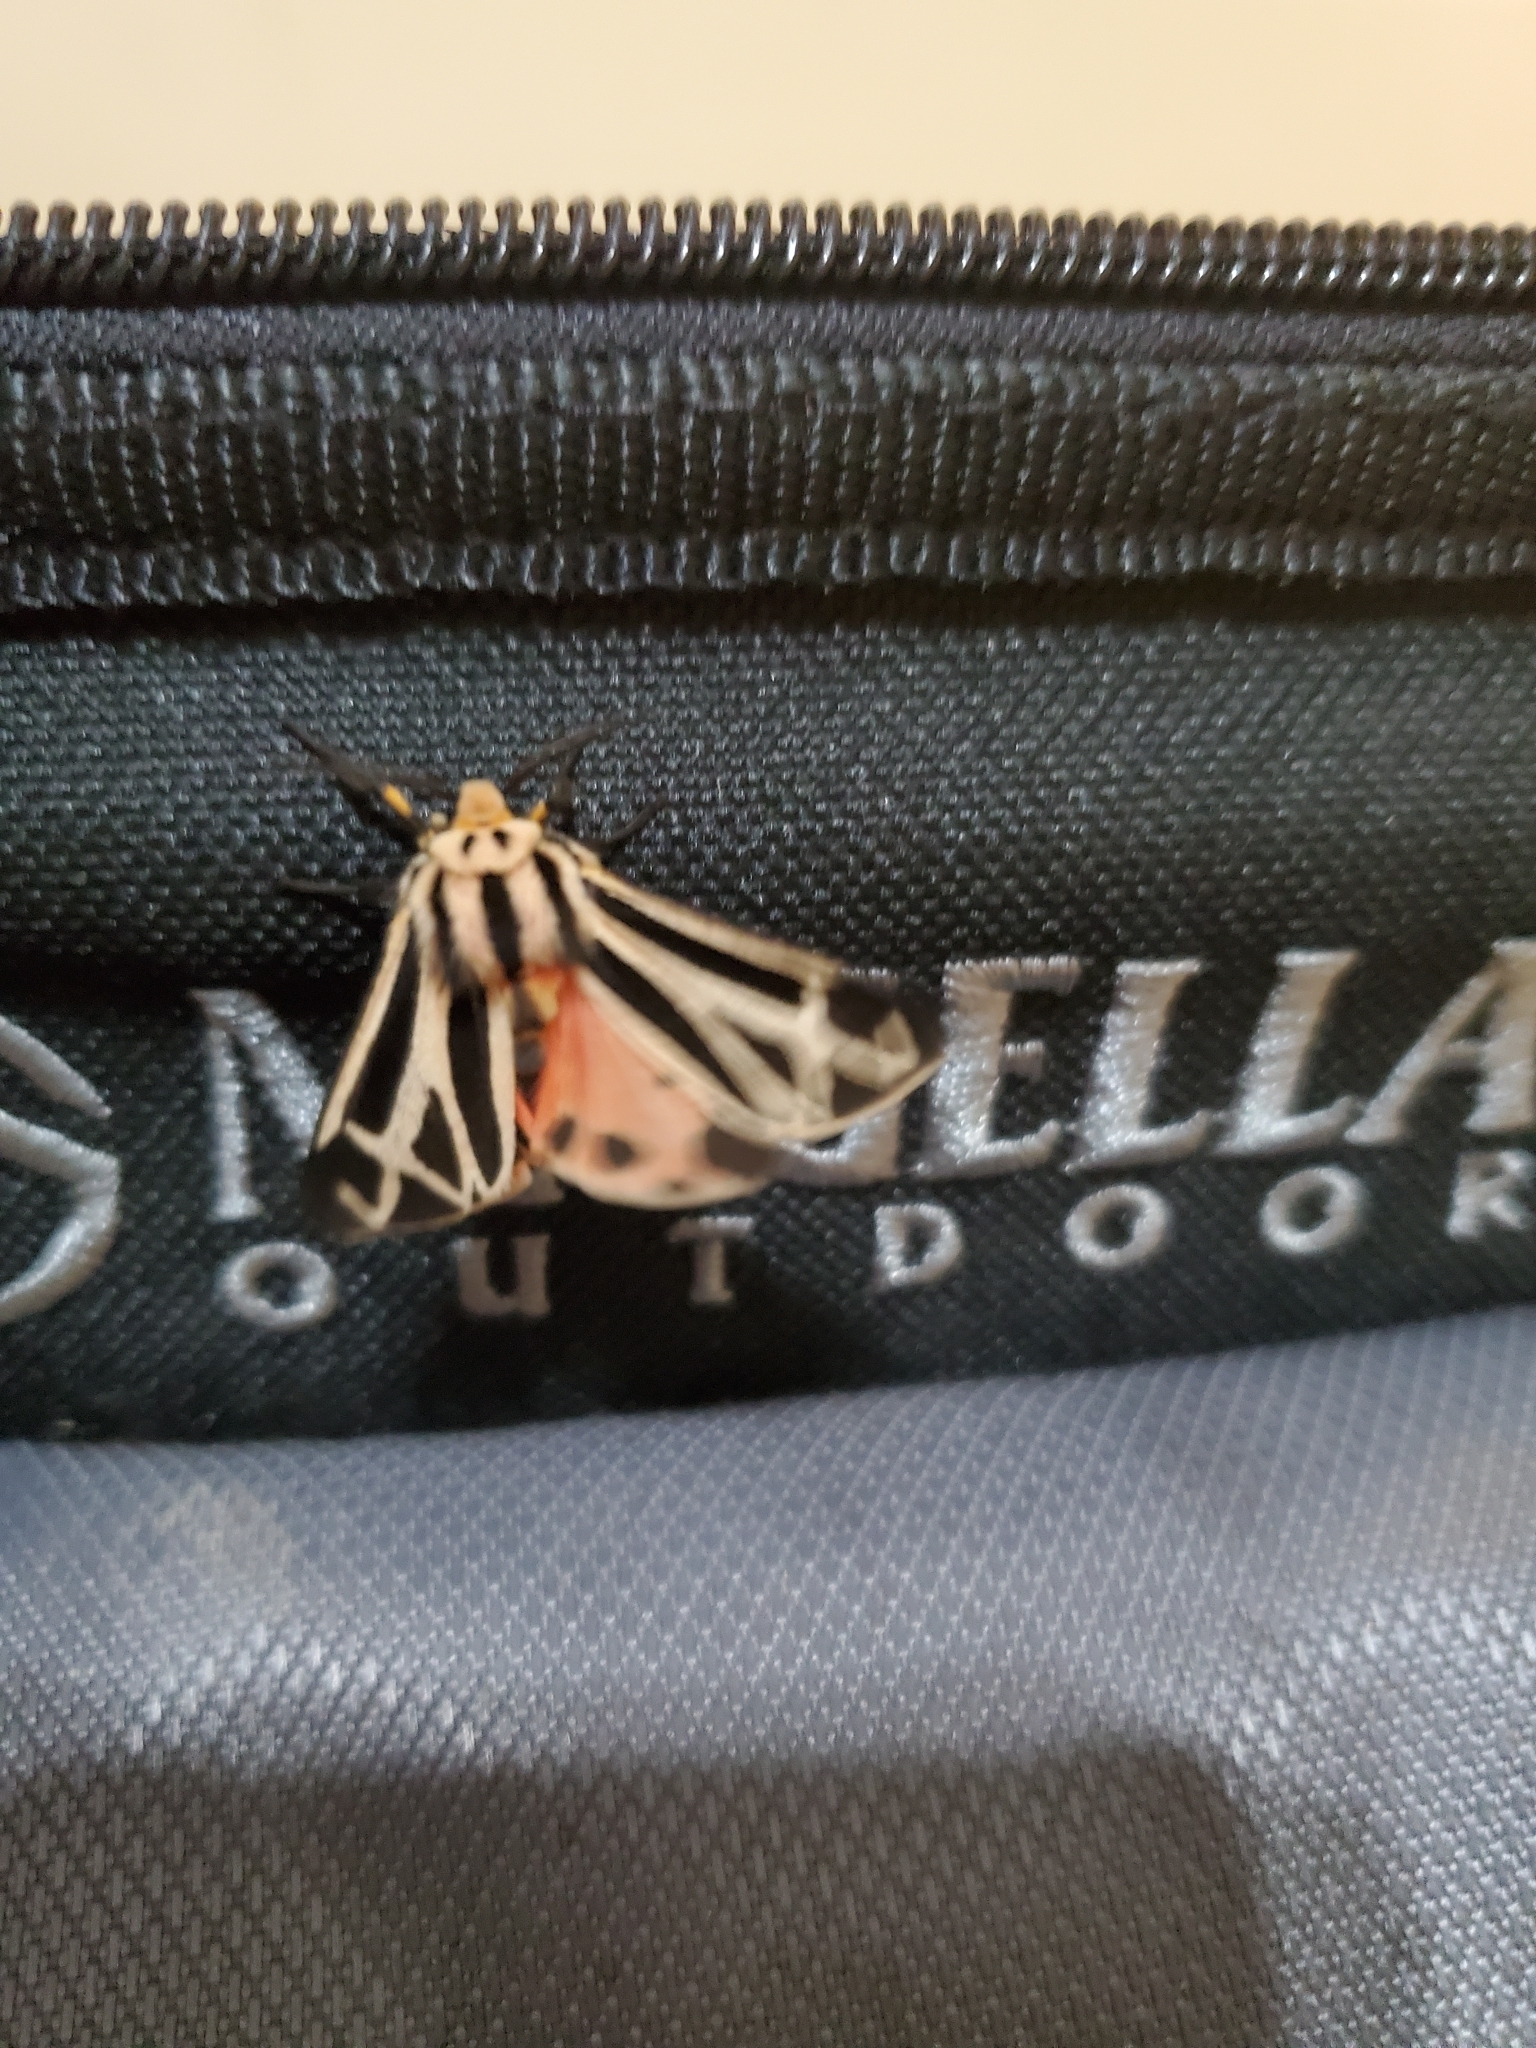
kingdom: Animalia
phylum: Arthropoda
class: Insecta
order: Lepidoptera
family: Erebidae
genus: Apantesis
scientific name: Apantesis phalerata
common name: Harnessed tiger moth
